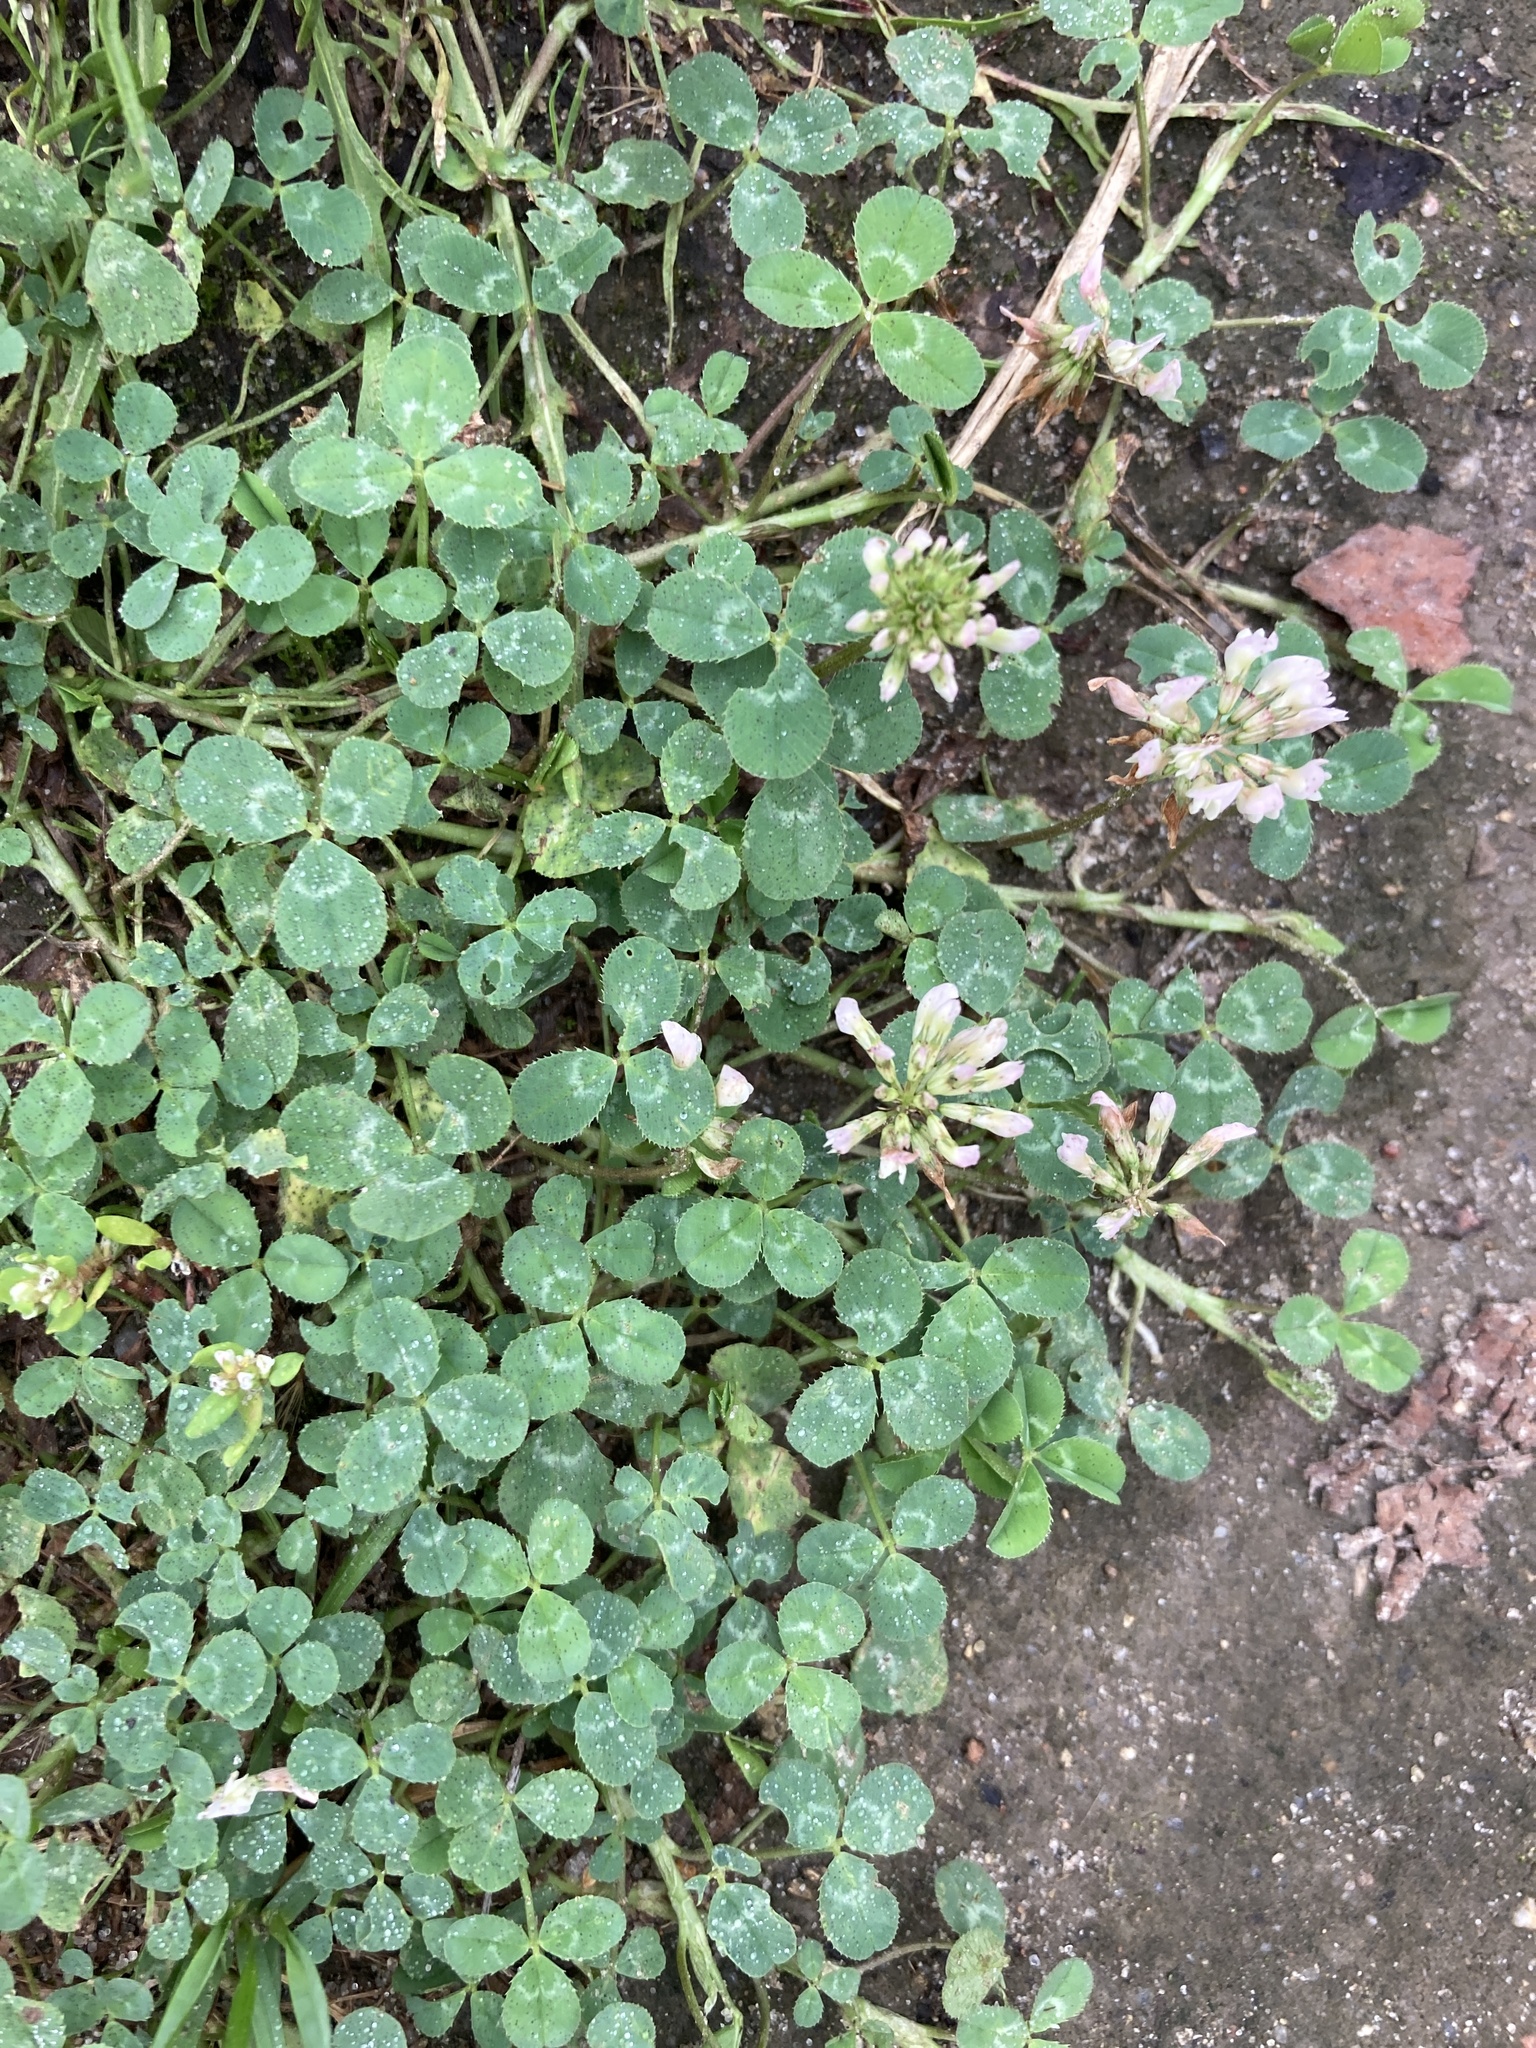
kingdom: Plantae
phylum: Tracheophyta
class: Magnoliopsida
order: Fabales
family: Fabaceae
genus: Trifolium
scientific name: Trifolium repens
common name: White clover
